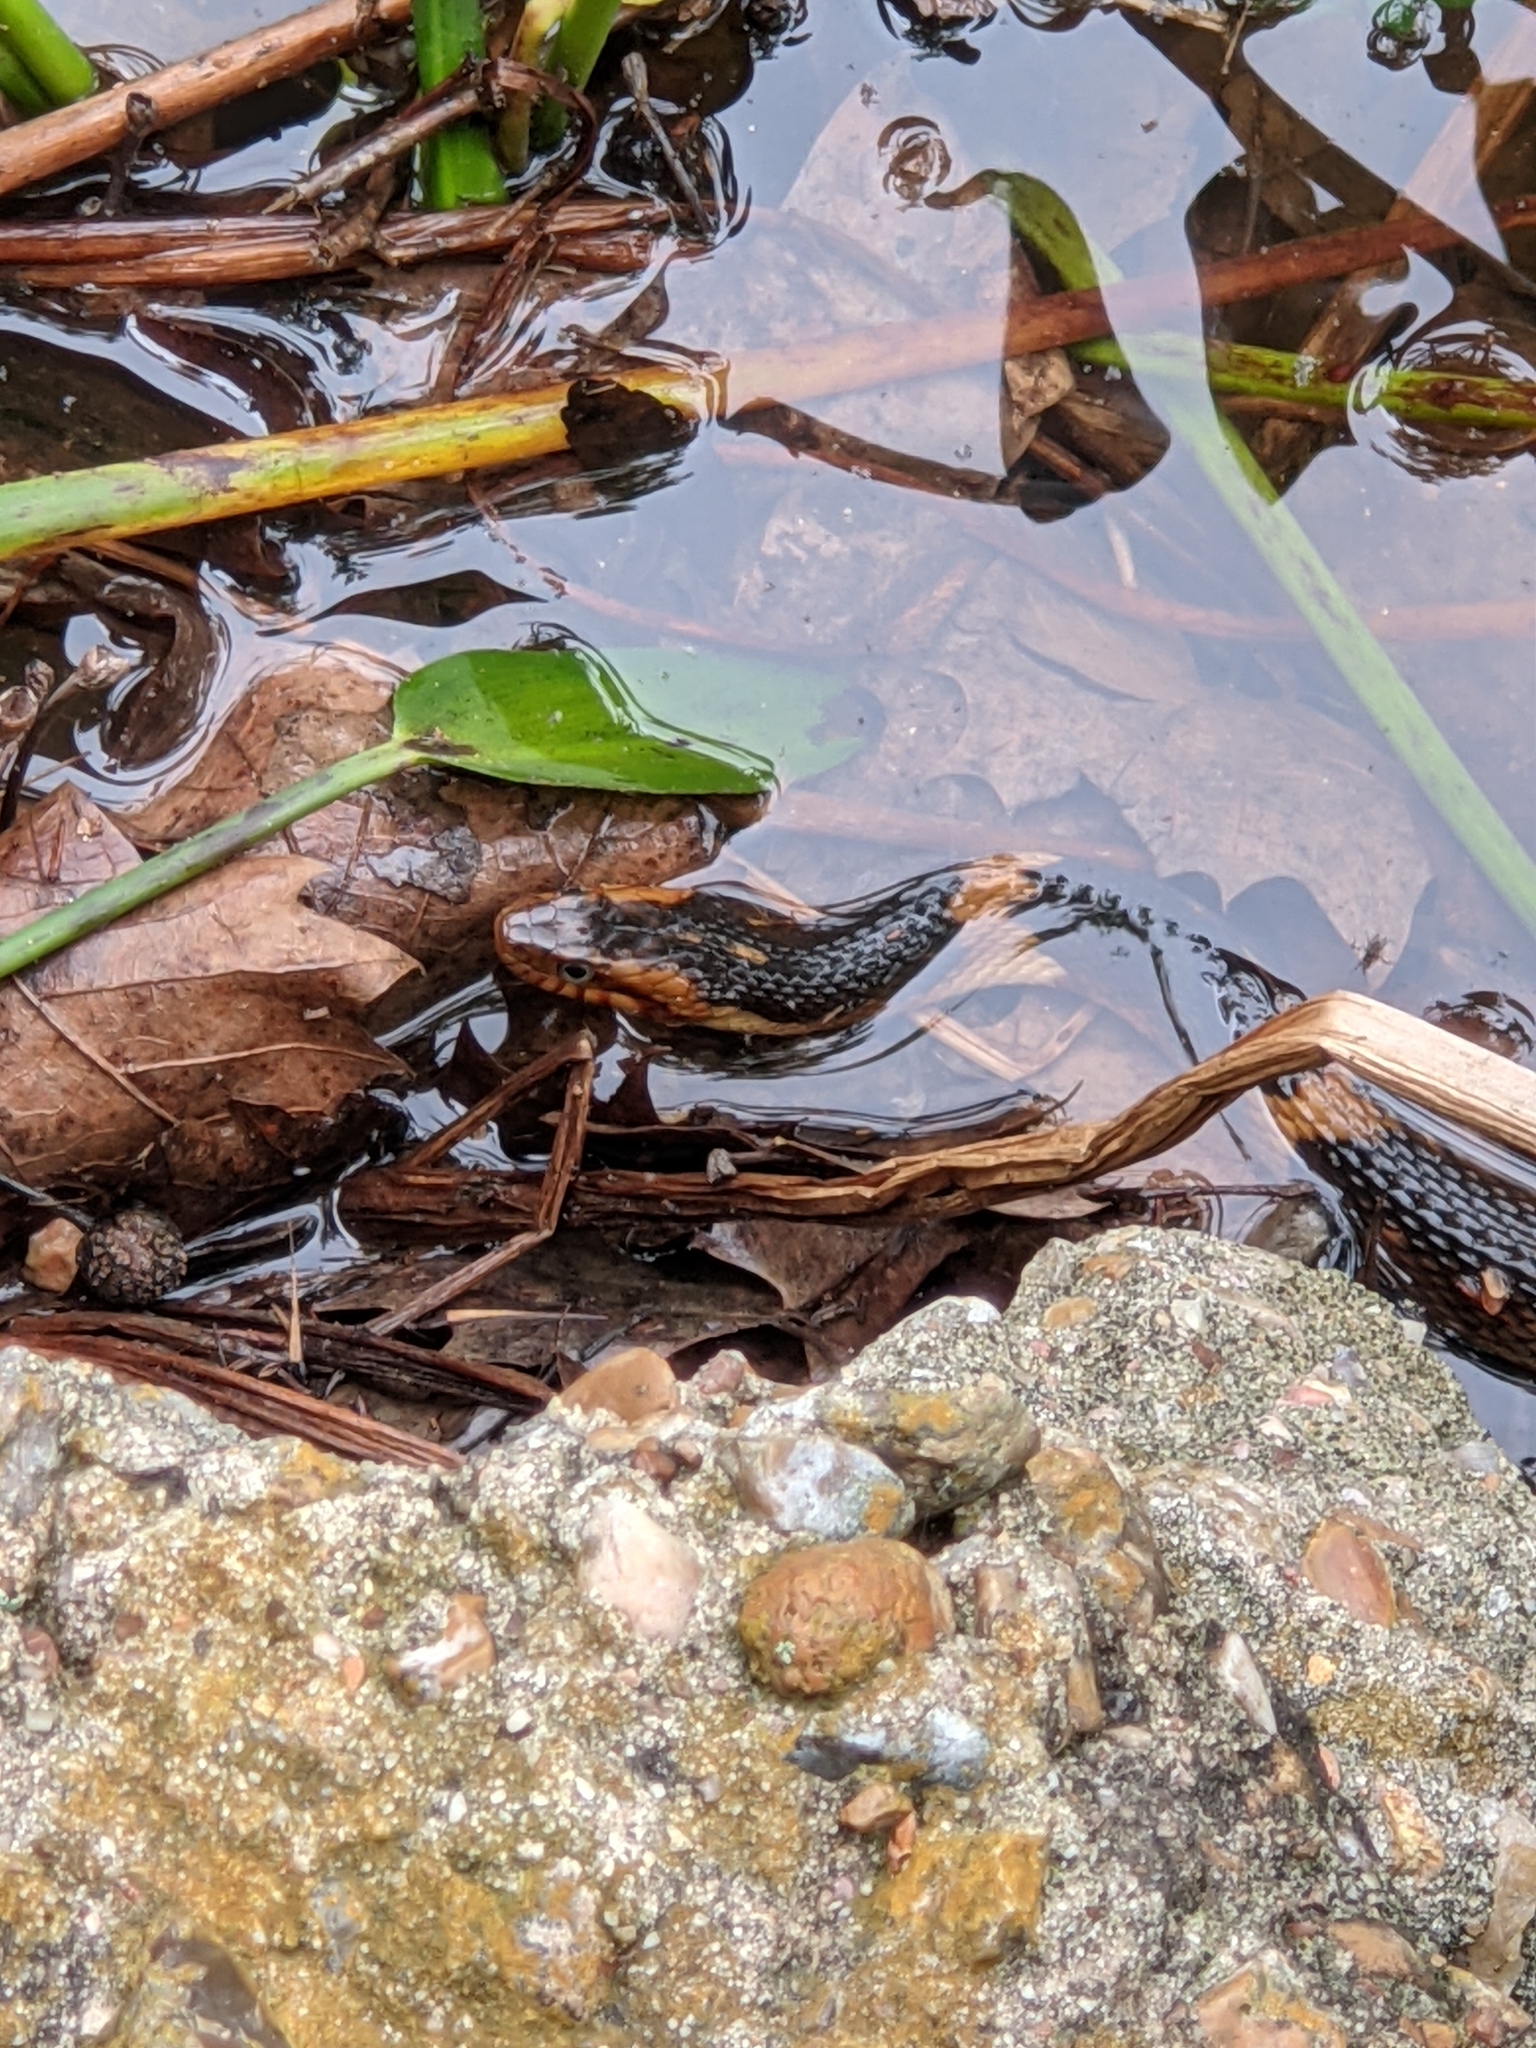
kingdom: Animalia
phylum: Chordata
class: Squamata
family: Colubridae
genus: Nerodia
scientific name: Nerodia fasciata
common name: Southern water snake
